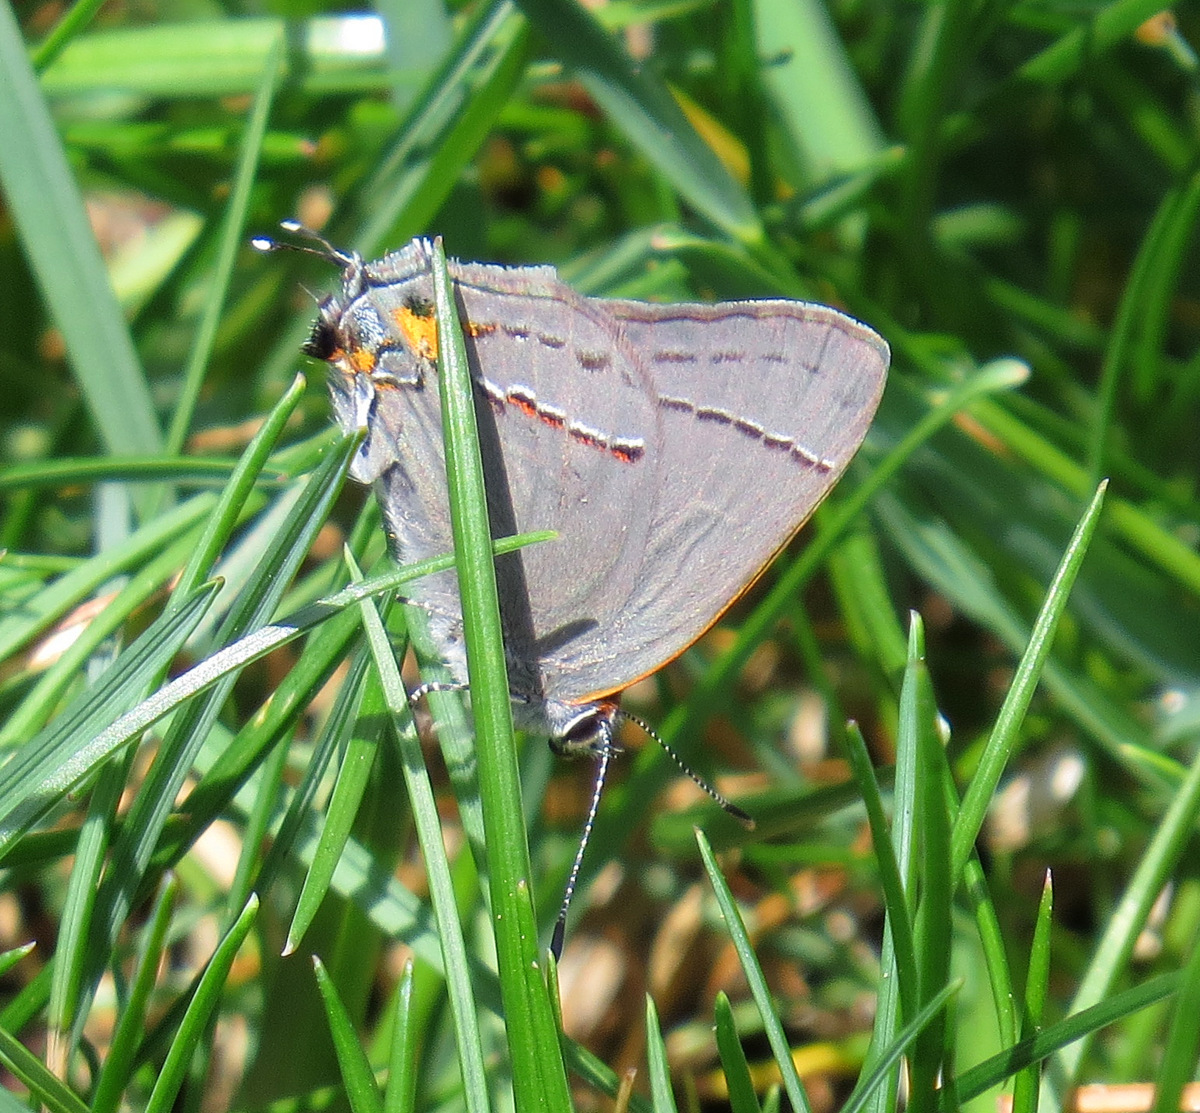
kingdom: Animalia
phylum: Arthropoda
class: Insecta
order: Lepidoptera
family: Lycaenidae
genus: Strymon
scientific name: Strymon melinus
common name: Gray hairstreak
